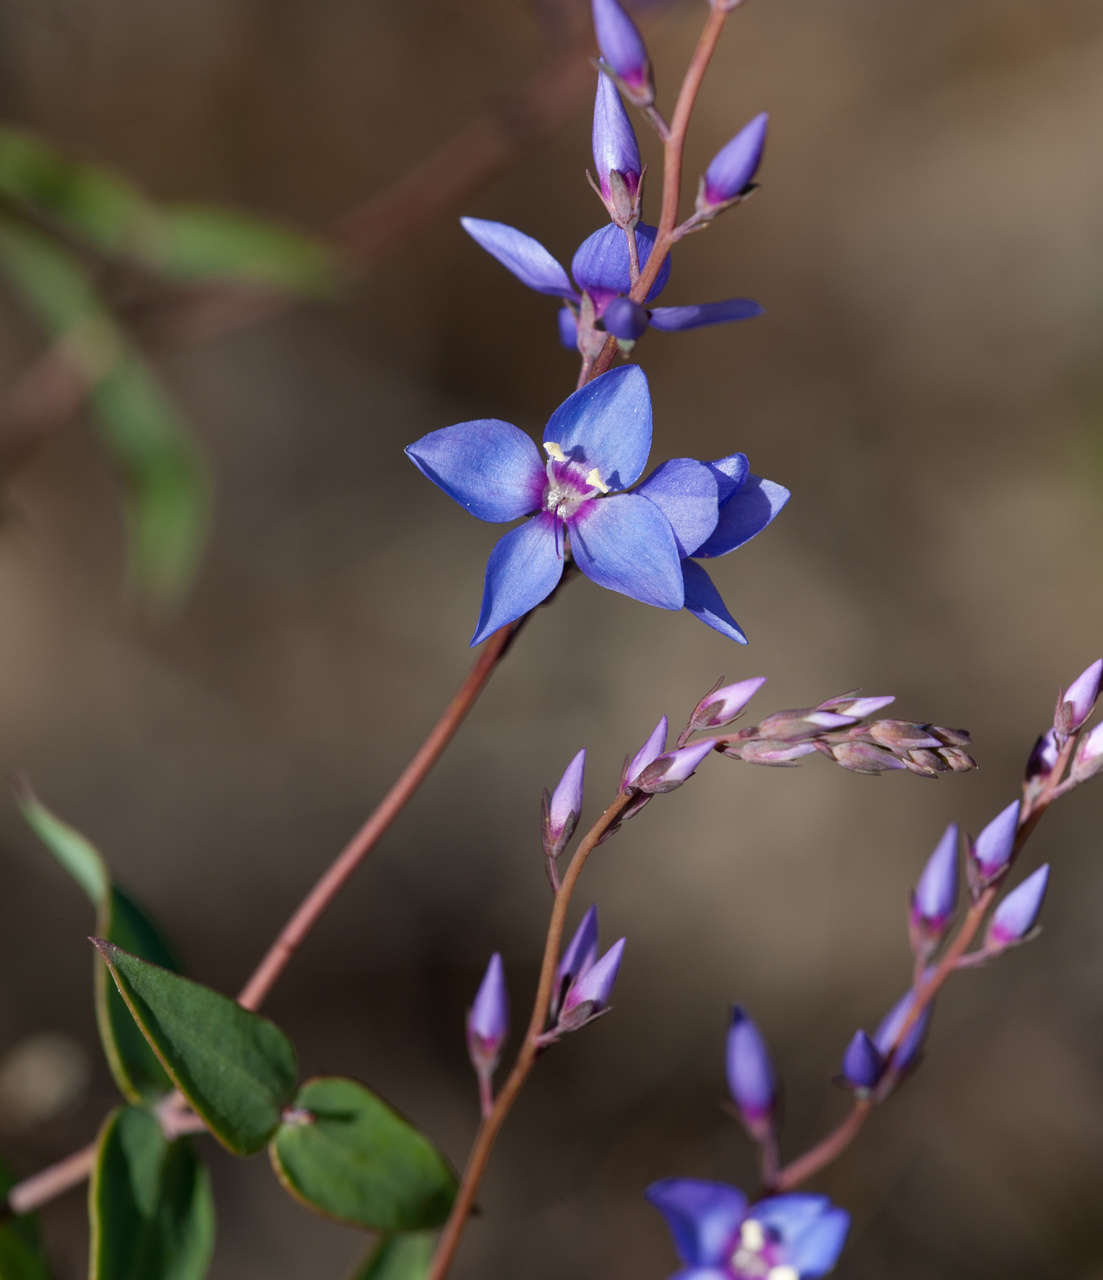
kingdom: Plantae
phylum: Tracheophyta
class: Magnoliopsida
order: Lamiales
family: Plantaginaceae
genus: Veronica
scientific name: Veronica perfoliata
